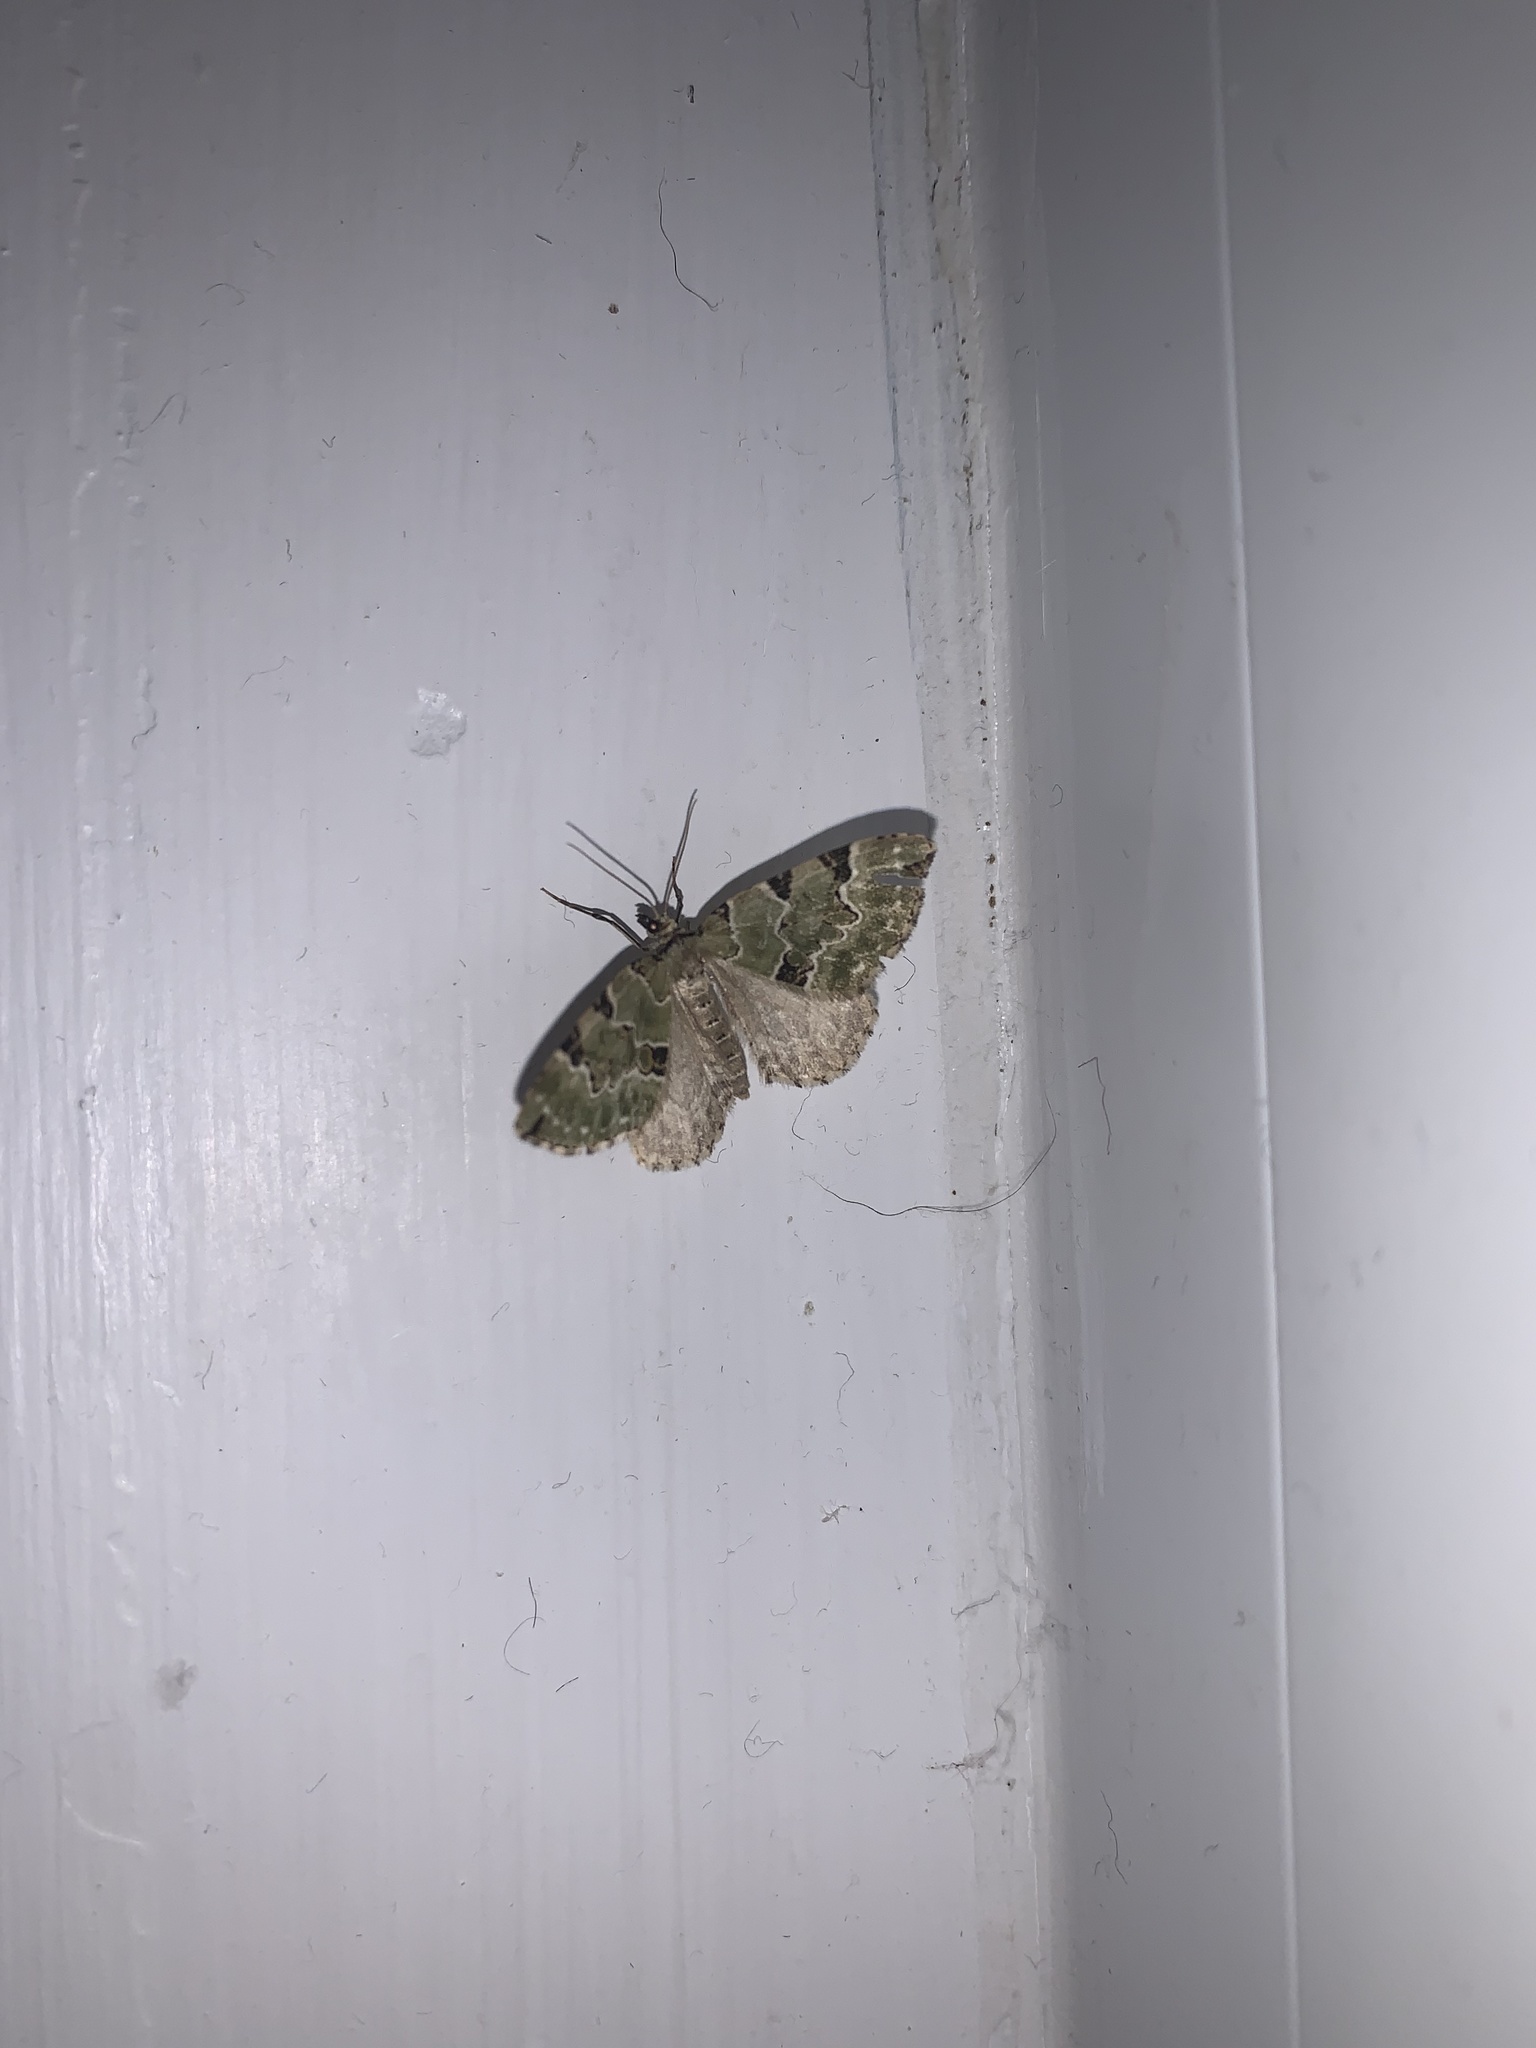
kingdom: Animalia
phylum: Arthropoda
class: Insecta
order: Lepidoptera
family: Geometridae
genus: Colostygia
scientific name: Colostygia pectinataria
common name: Green carpet
